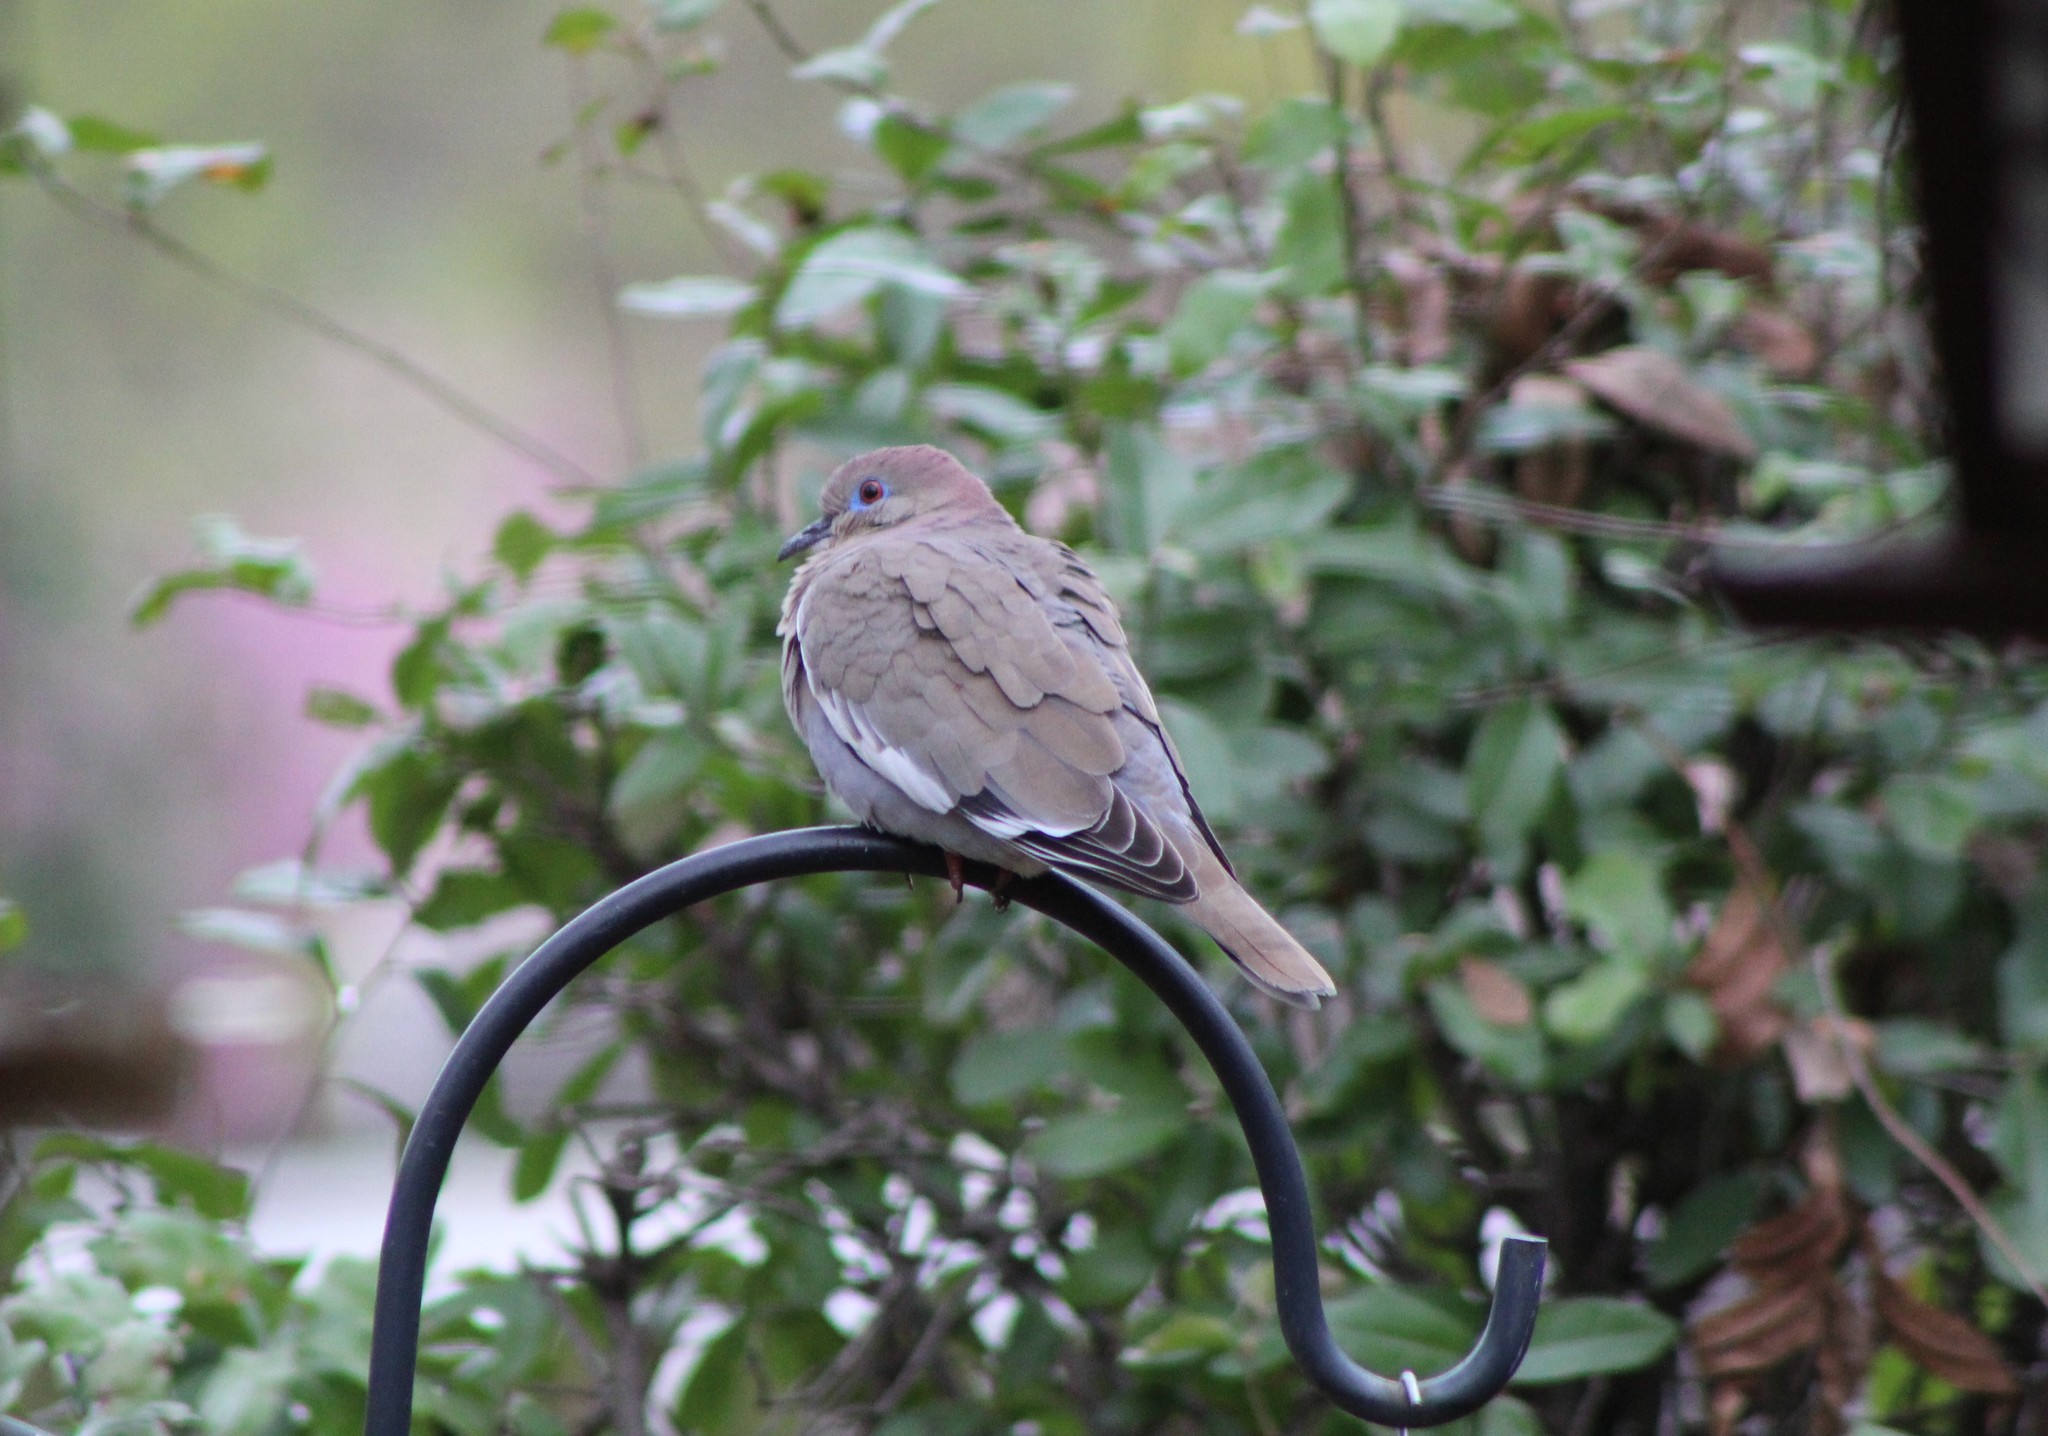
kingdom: Animalia
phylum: Chordata
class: Aves
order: Columbiformes
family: Columbidae
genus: Zenaida
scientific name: Zenaida asiatica
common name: White-winged dove
